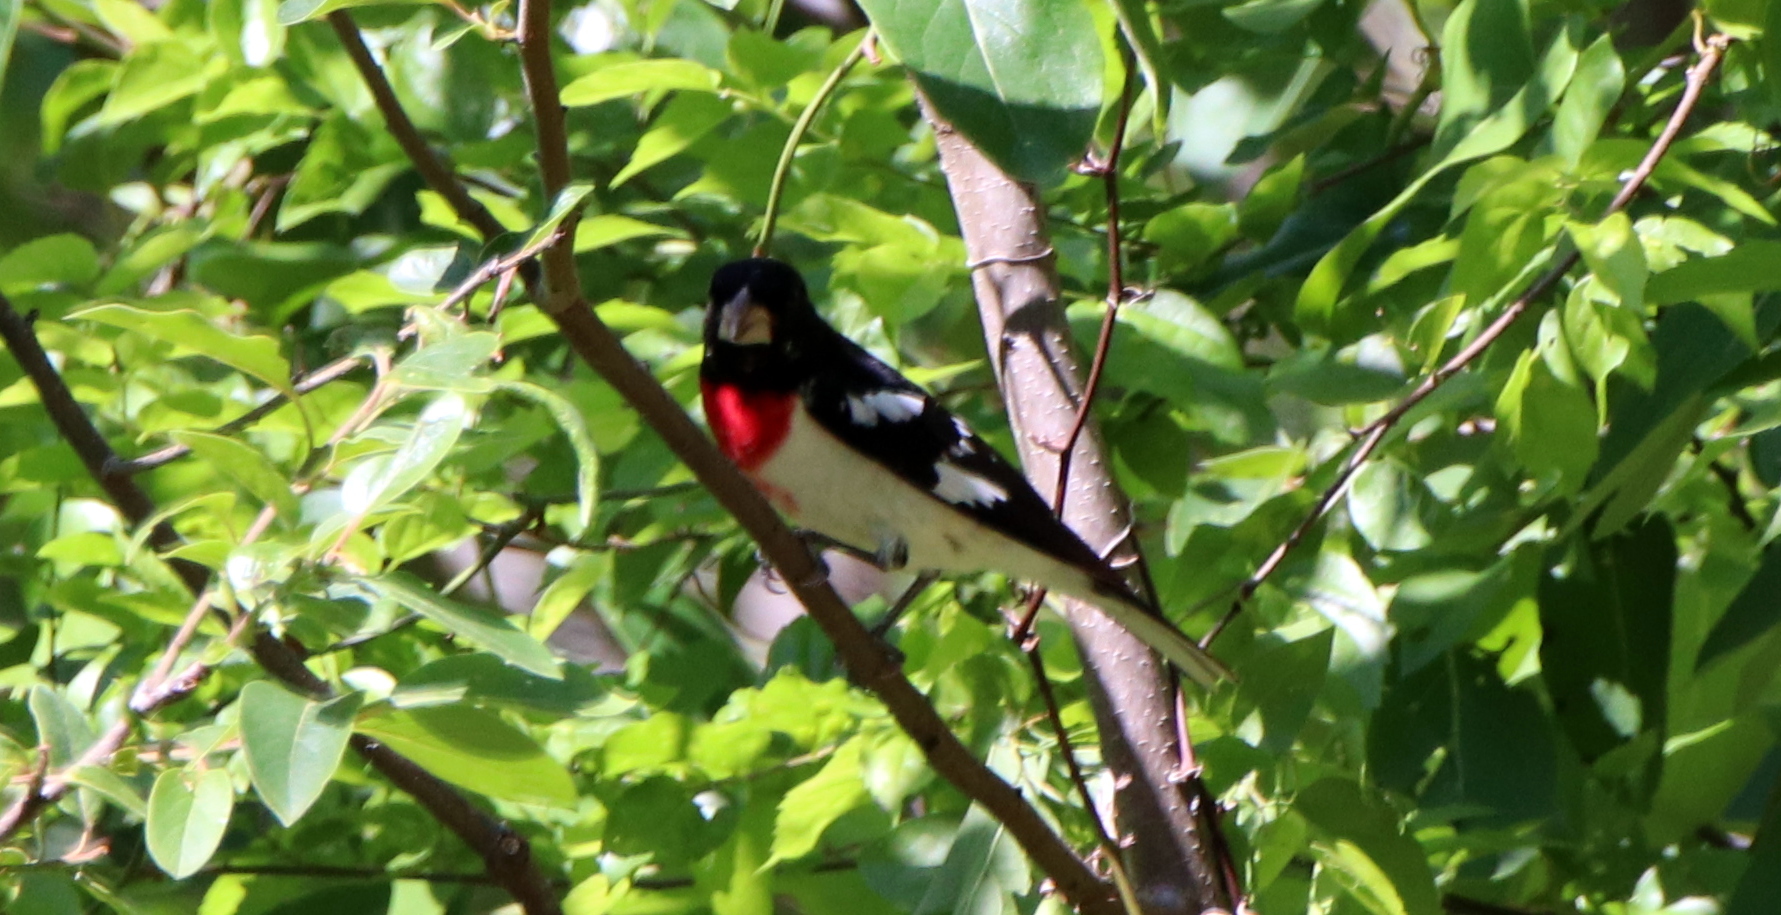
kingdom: Animalia
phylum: Chordata
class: Aves
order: Passeriformes
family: Cardinalidae
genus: Pheucticus
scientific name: Pheucticus ludovicianus
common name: Rose-breasted grosbeak
